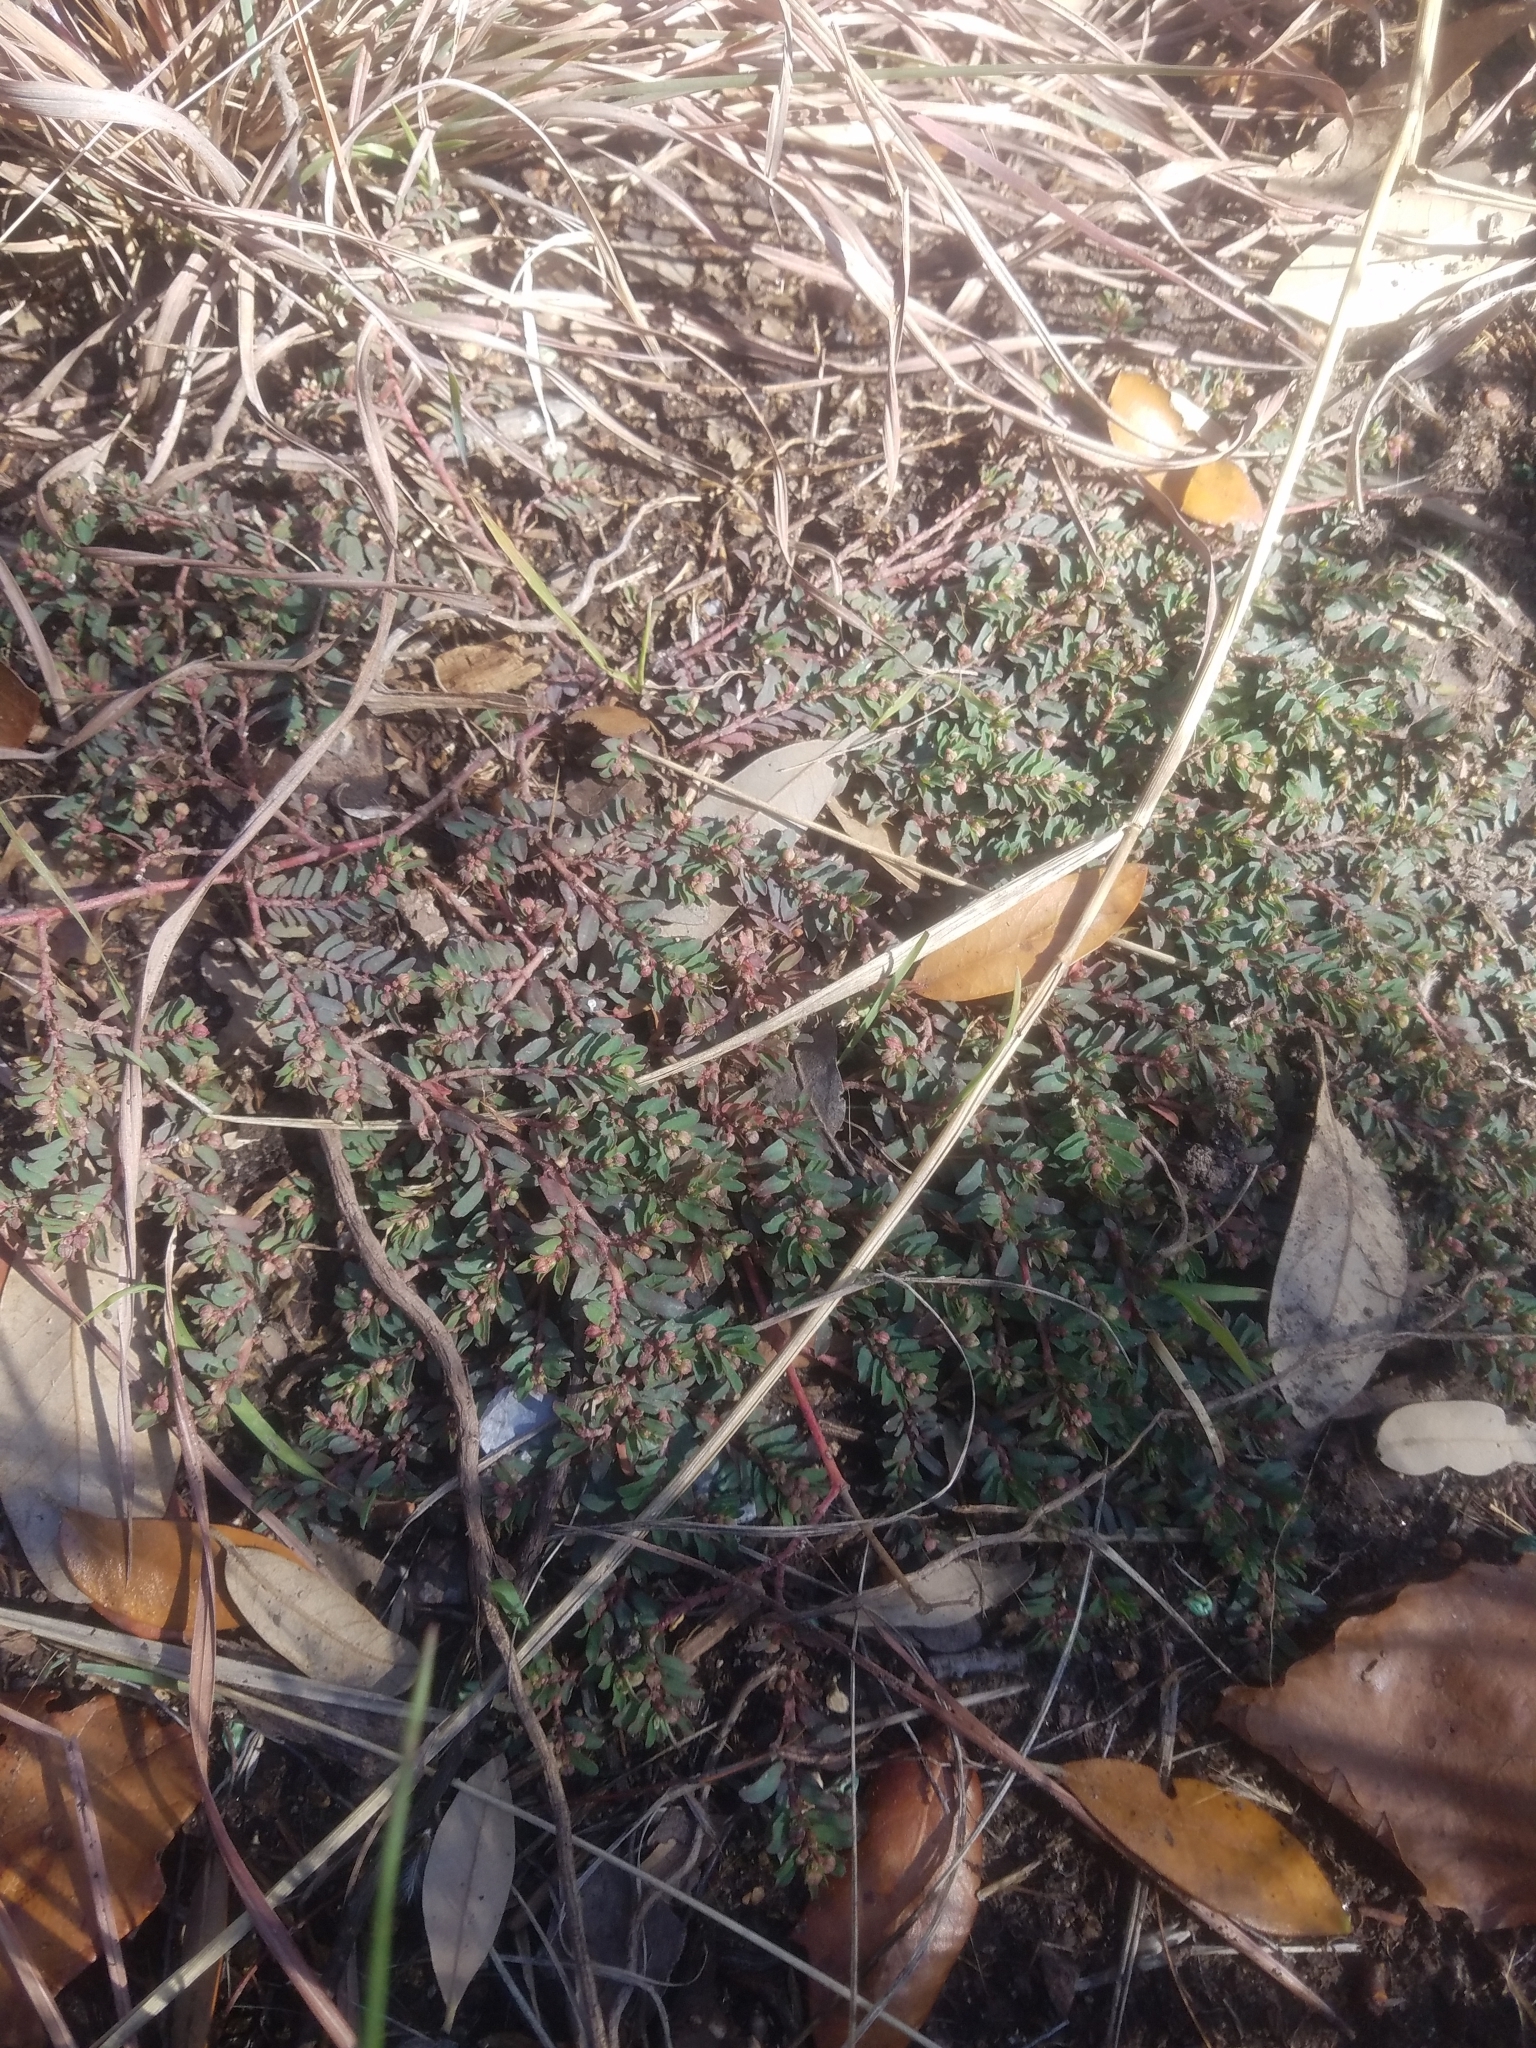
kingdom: Plantae
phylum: Tracheophyta
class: Magnoliopsida
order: Malpighiales
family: Euphorbiaceae
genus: Euphorbia
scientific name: Euphorbia maculata
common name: Spotted spurge
